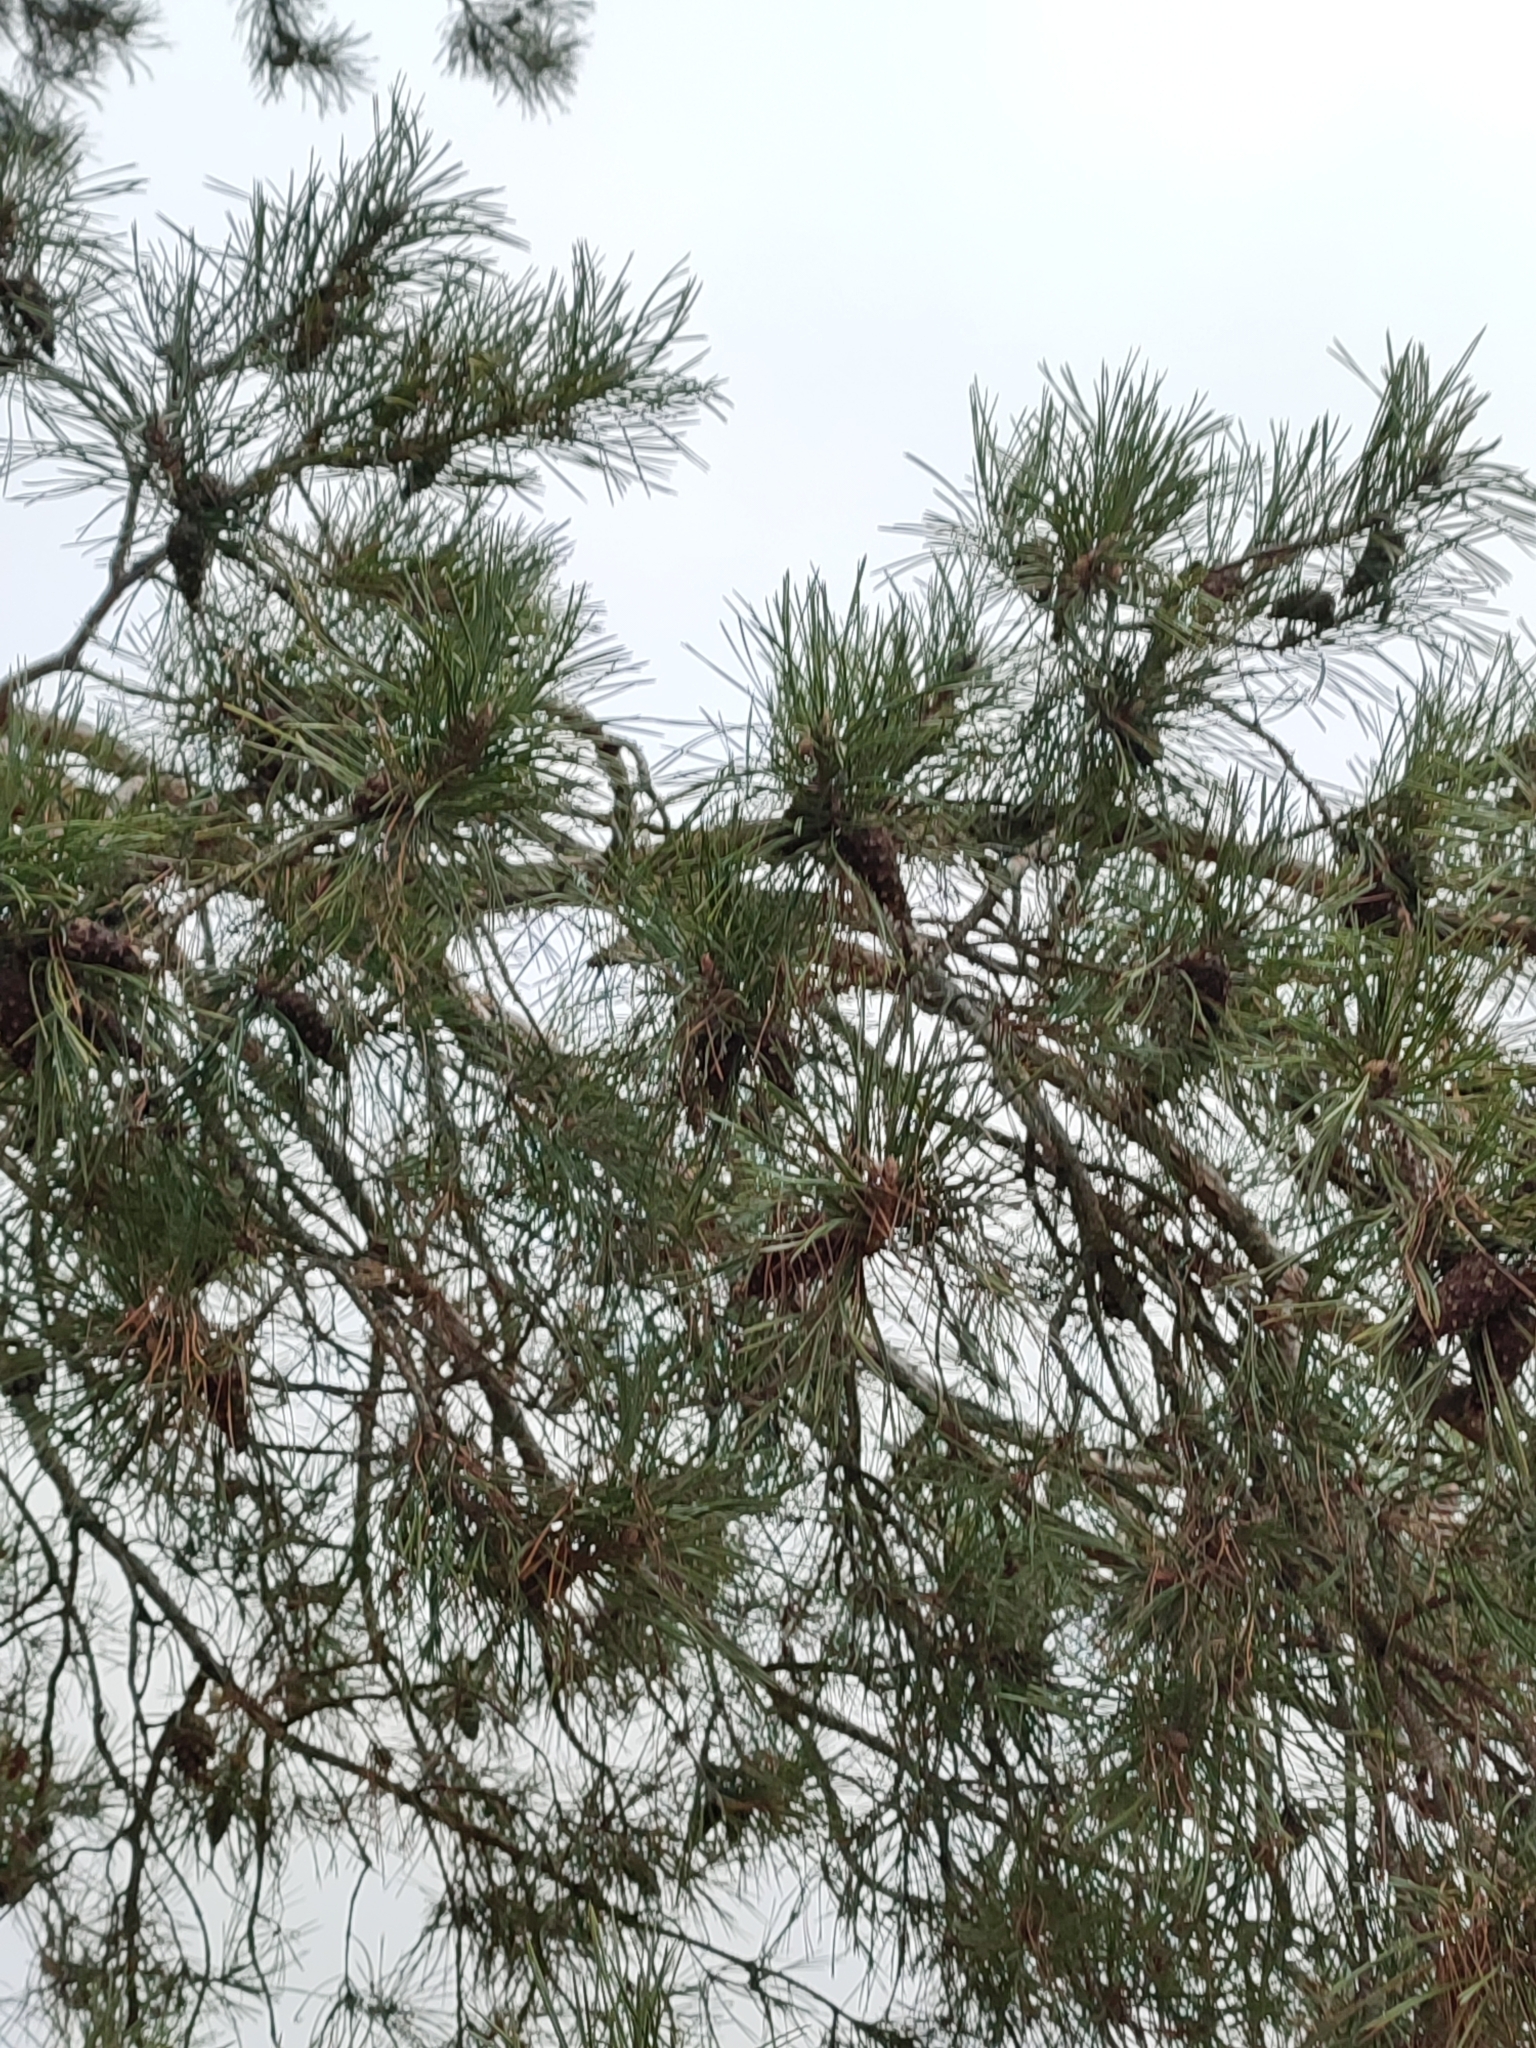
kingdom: Plantae
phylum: Tracheophyta
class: Pinopsida
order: Pinales
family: Pinaceae
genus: Pinus
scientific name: Pinus sylvestris
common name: Scots pine
